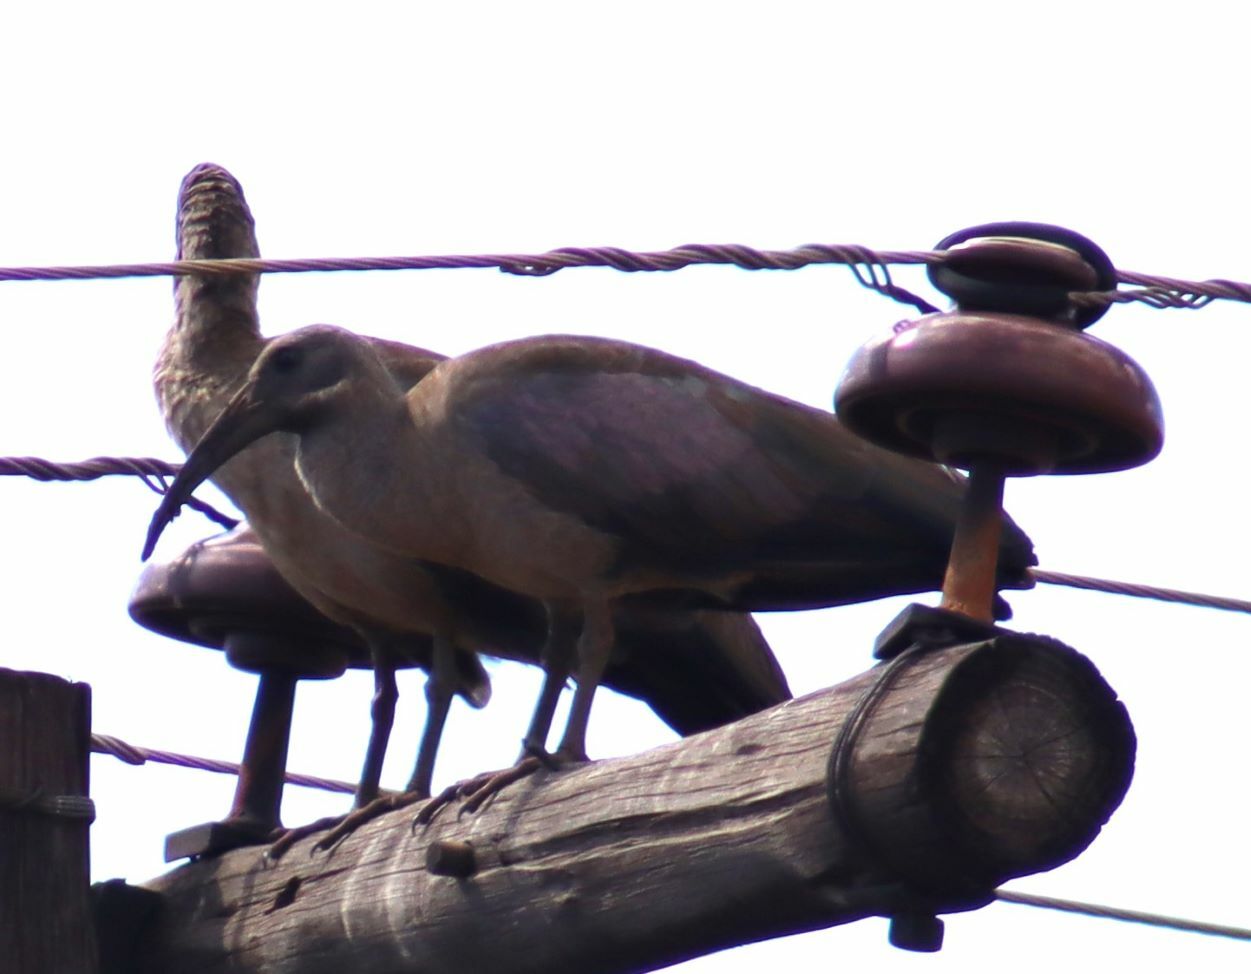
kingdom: Animalia
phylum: Chordata
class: Aves
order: Pelecaniformes
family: Threskiornithidae
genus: Bostrychia
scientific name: Bostrychia hagedash
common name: Hadada ibis
